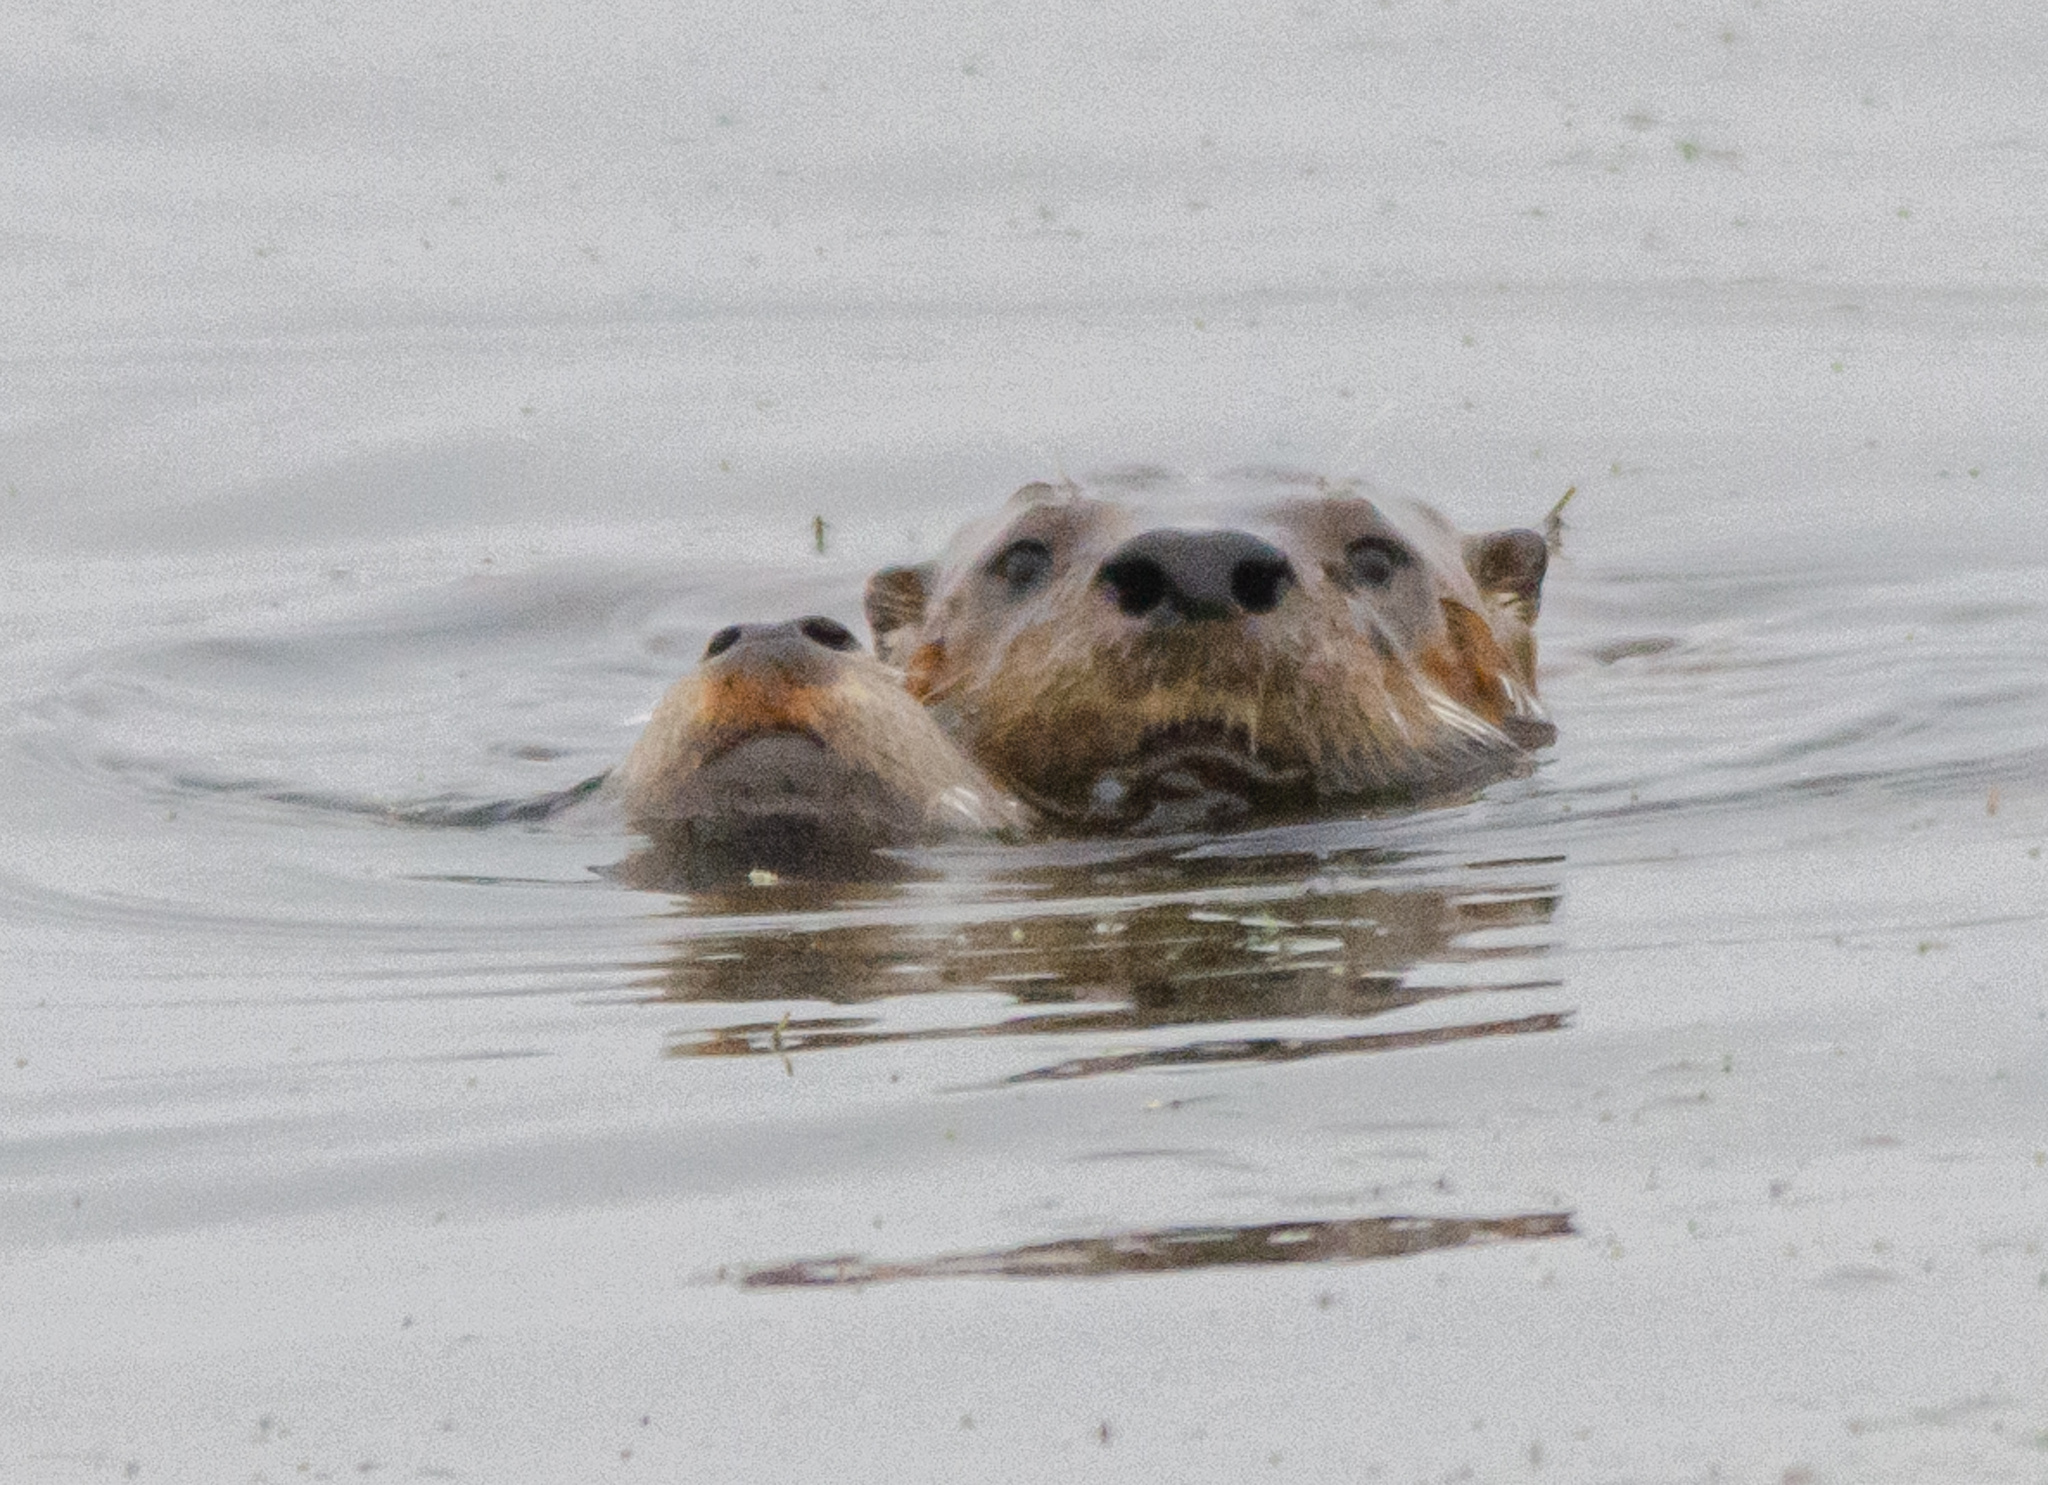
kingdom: Animalia
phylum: Chordata
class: Mammalia
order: Carnivora
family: Mustelidae
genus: Lontra
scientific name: Lontra canadensis
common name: North american river otter
